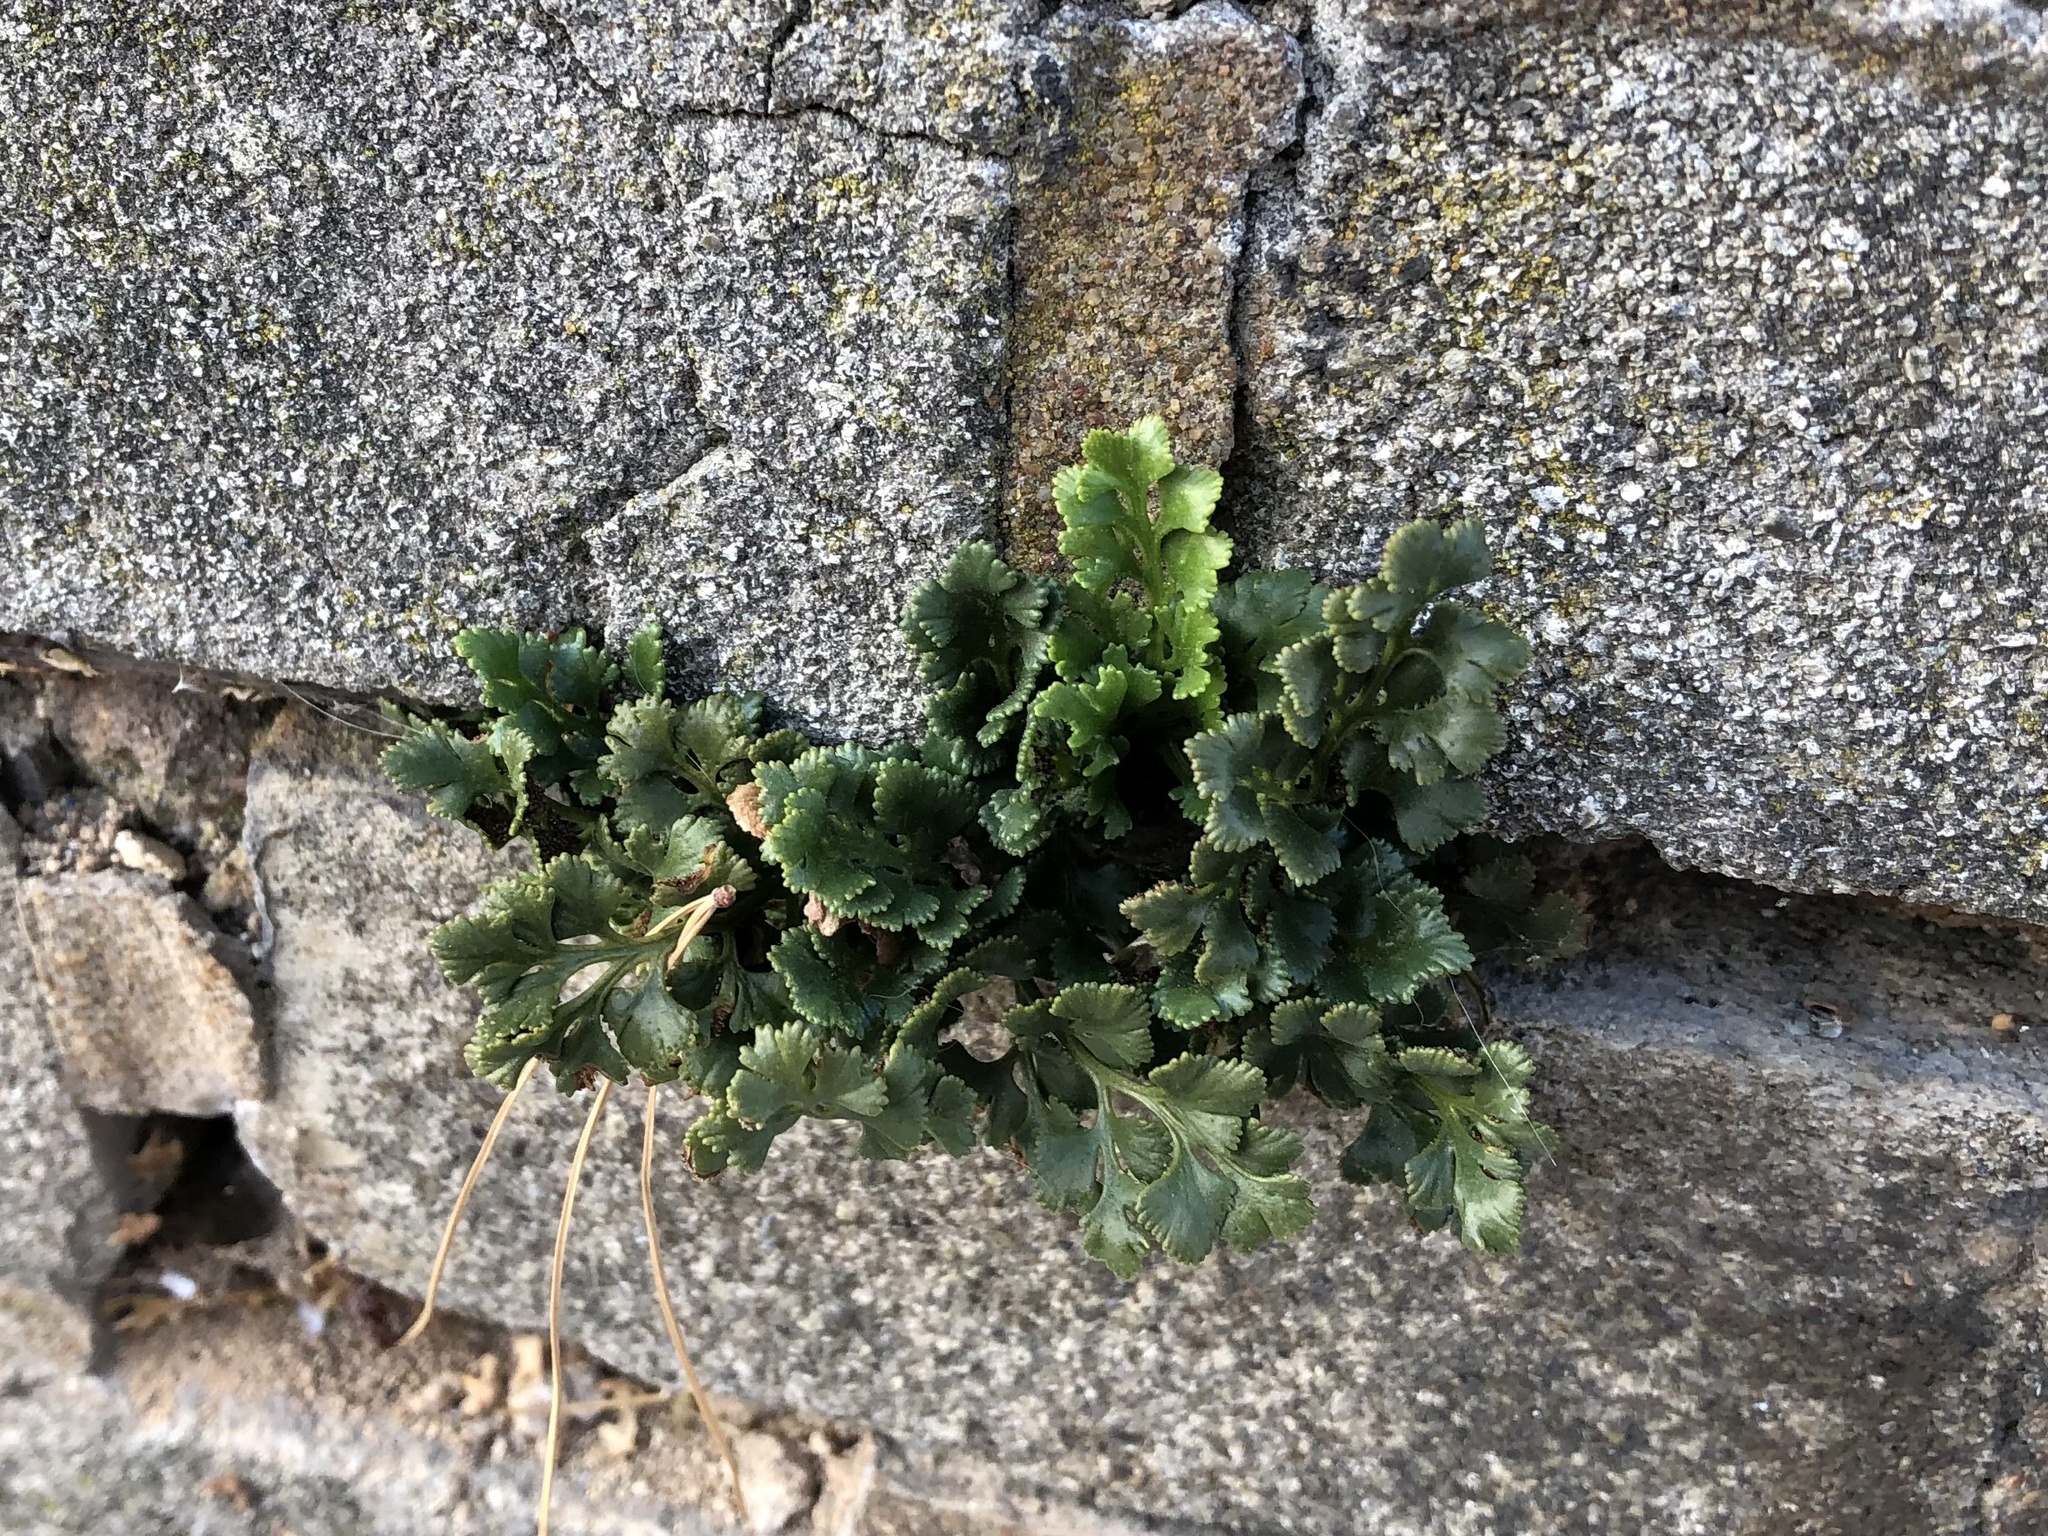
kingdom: Plantae
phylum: Tracheophyta
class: Polypodiopsida
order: Polypodiales
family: Aspleniaceae
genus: Asplenium
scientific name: Asplenium ruta-muraria
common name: Wall-rue
